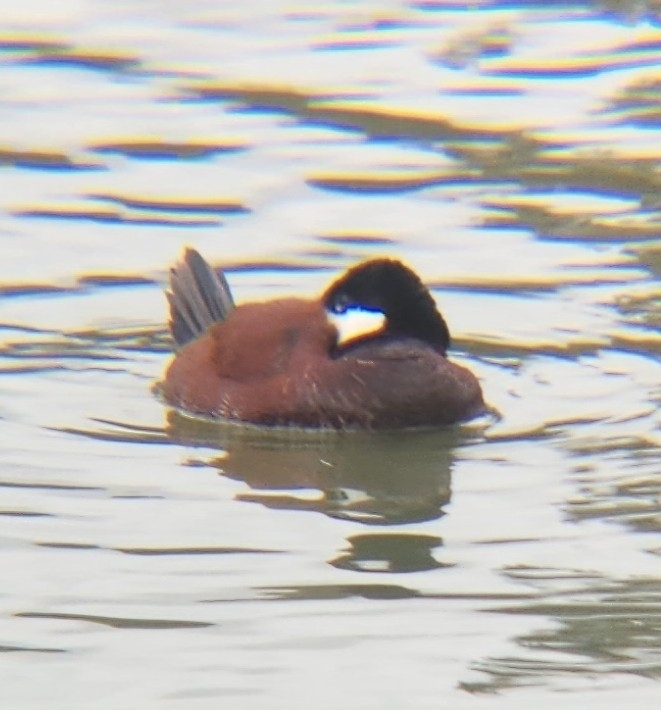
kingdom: Animalia
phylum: Chordata
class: Aves
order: Anseriformes
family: Anatidae
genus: Oxyura
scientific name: Oxyura jamaicensis
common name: Ruddy duck
